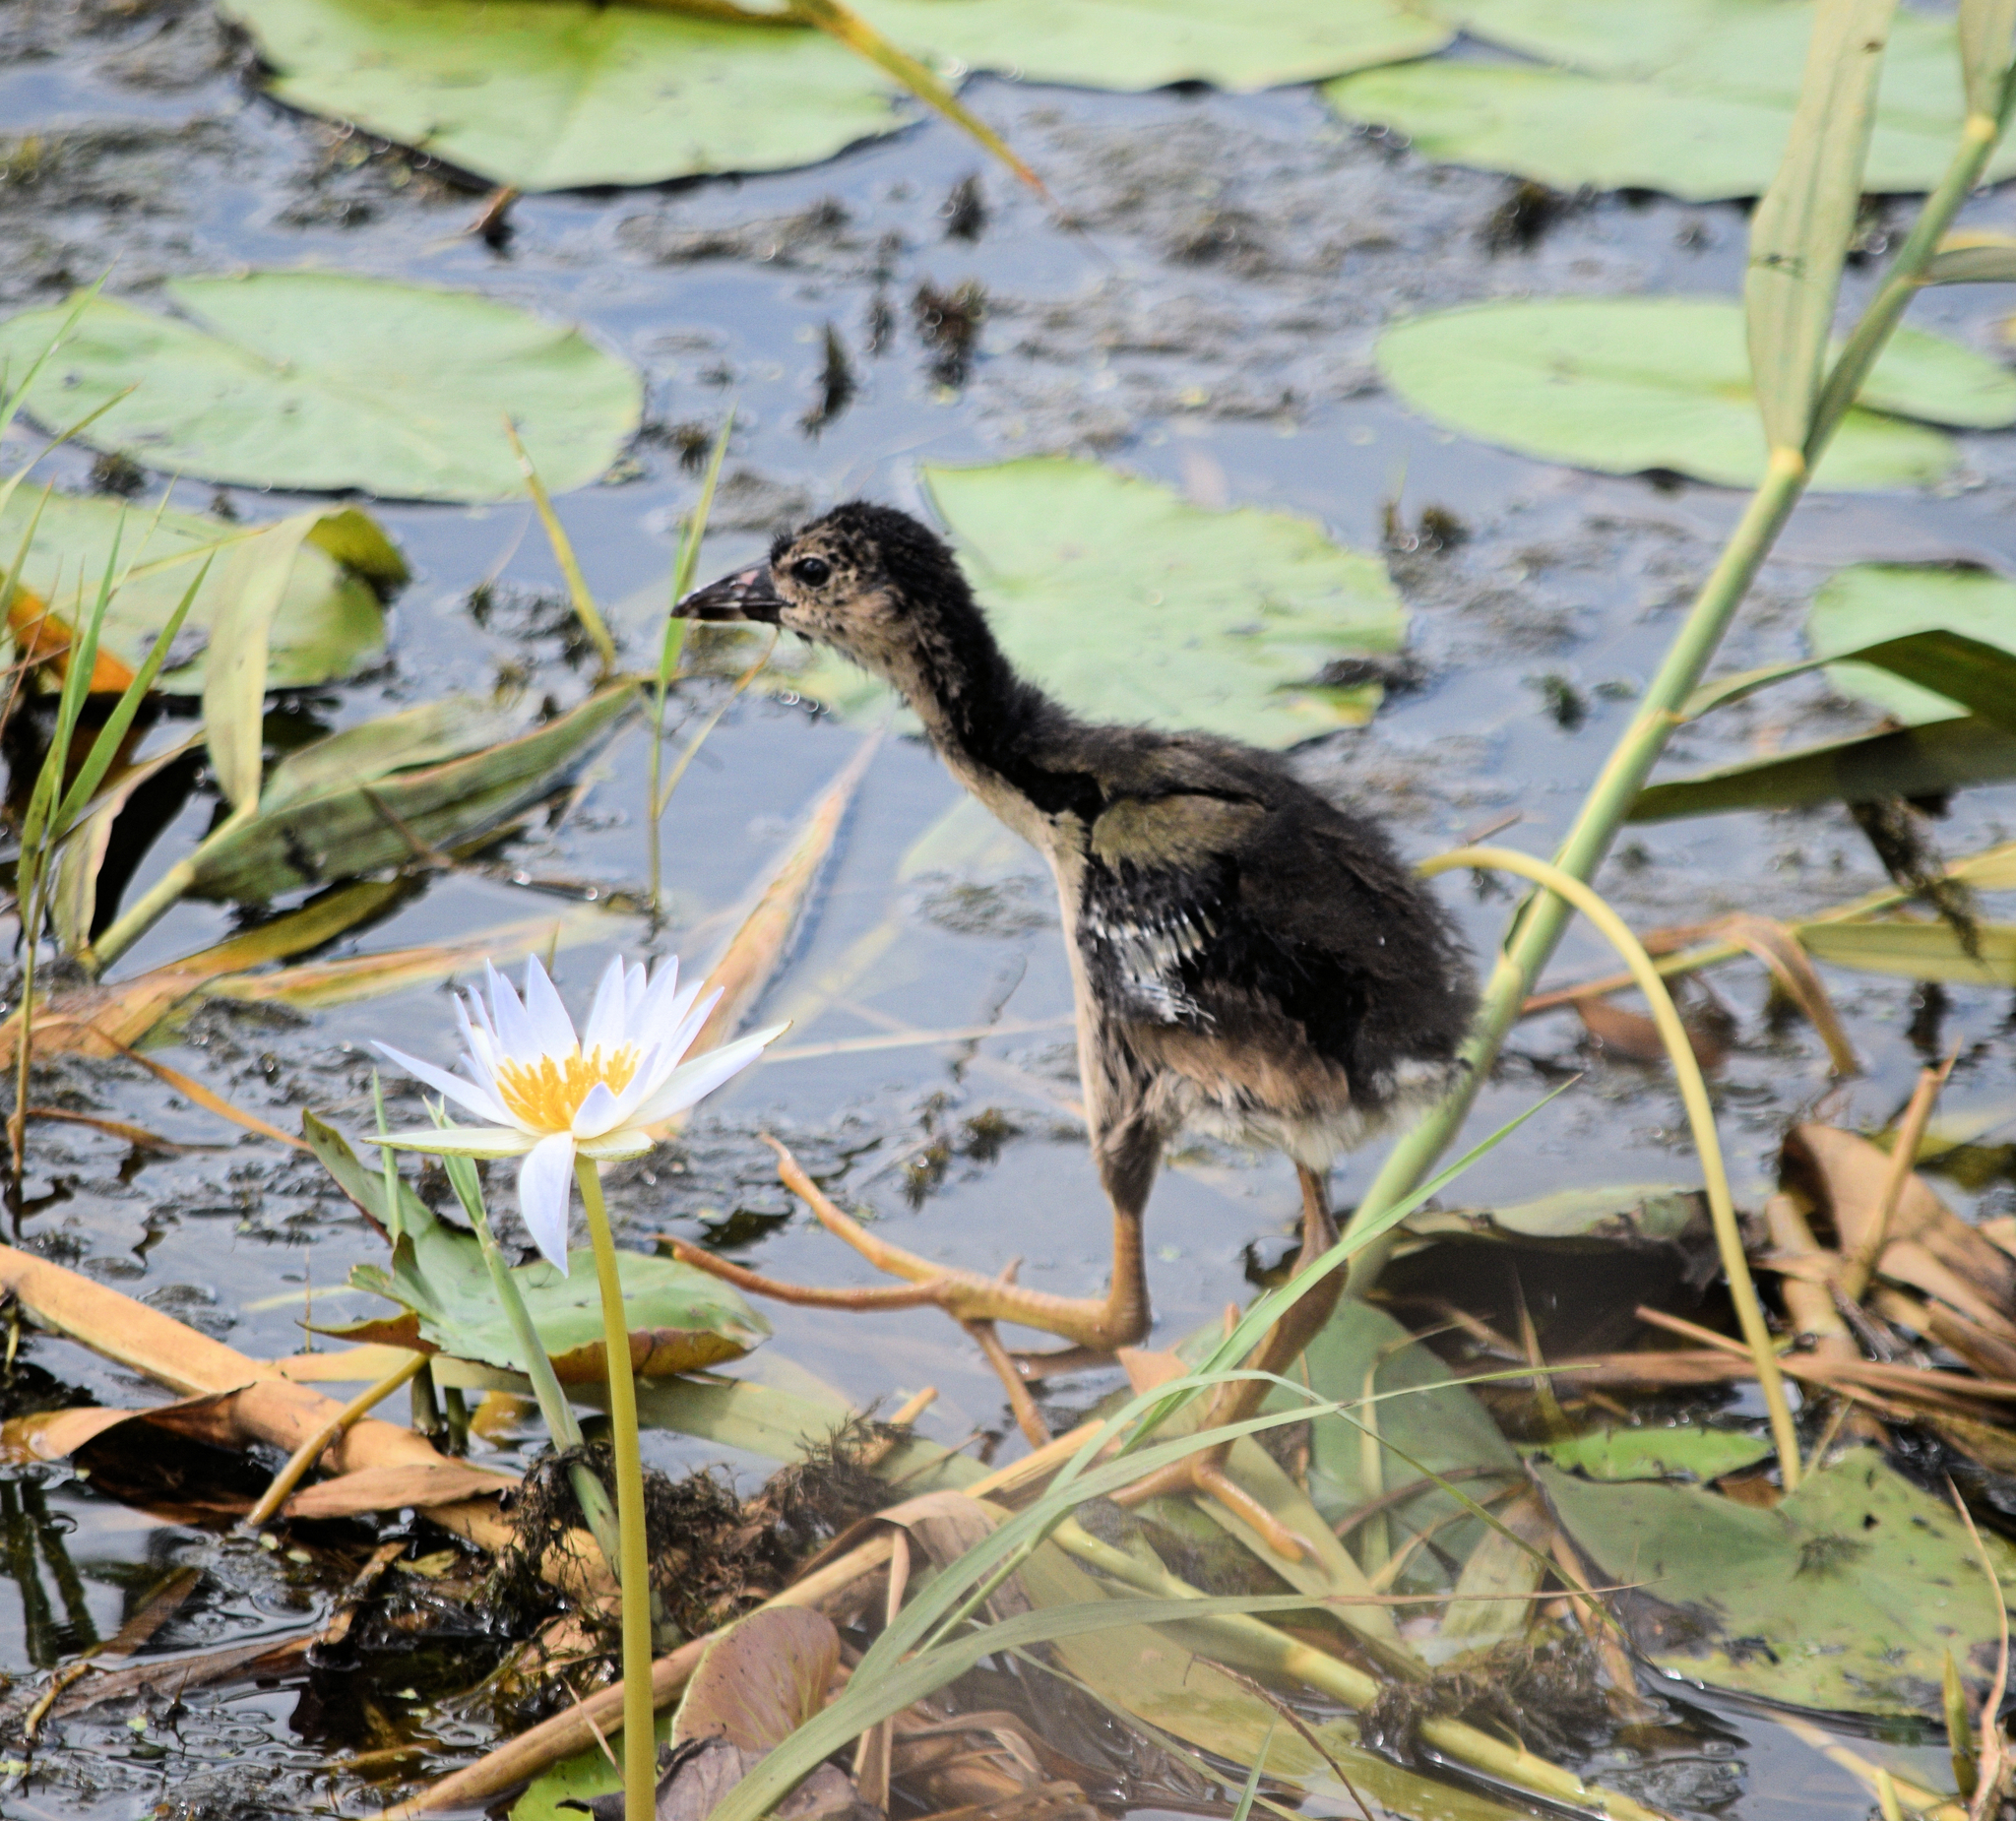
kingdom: Animalia
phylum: Chordata
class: Aves
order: Gruiformes
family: Rallidae
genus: Porphyrio
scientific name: Porphyrio martinica
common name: Purple gallinule
